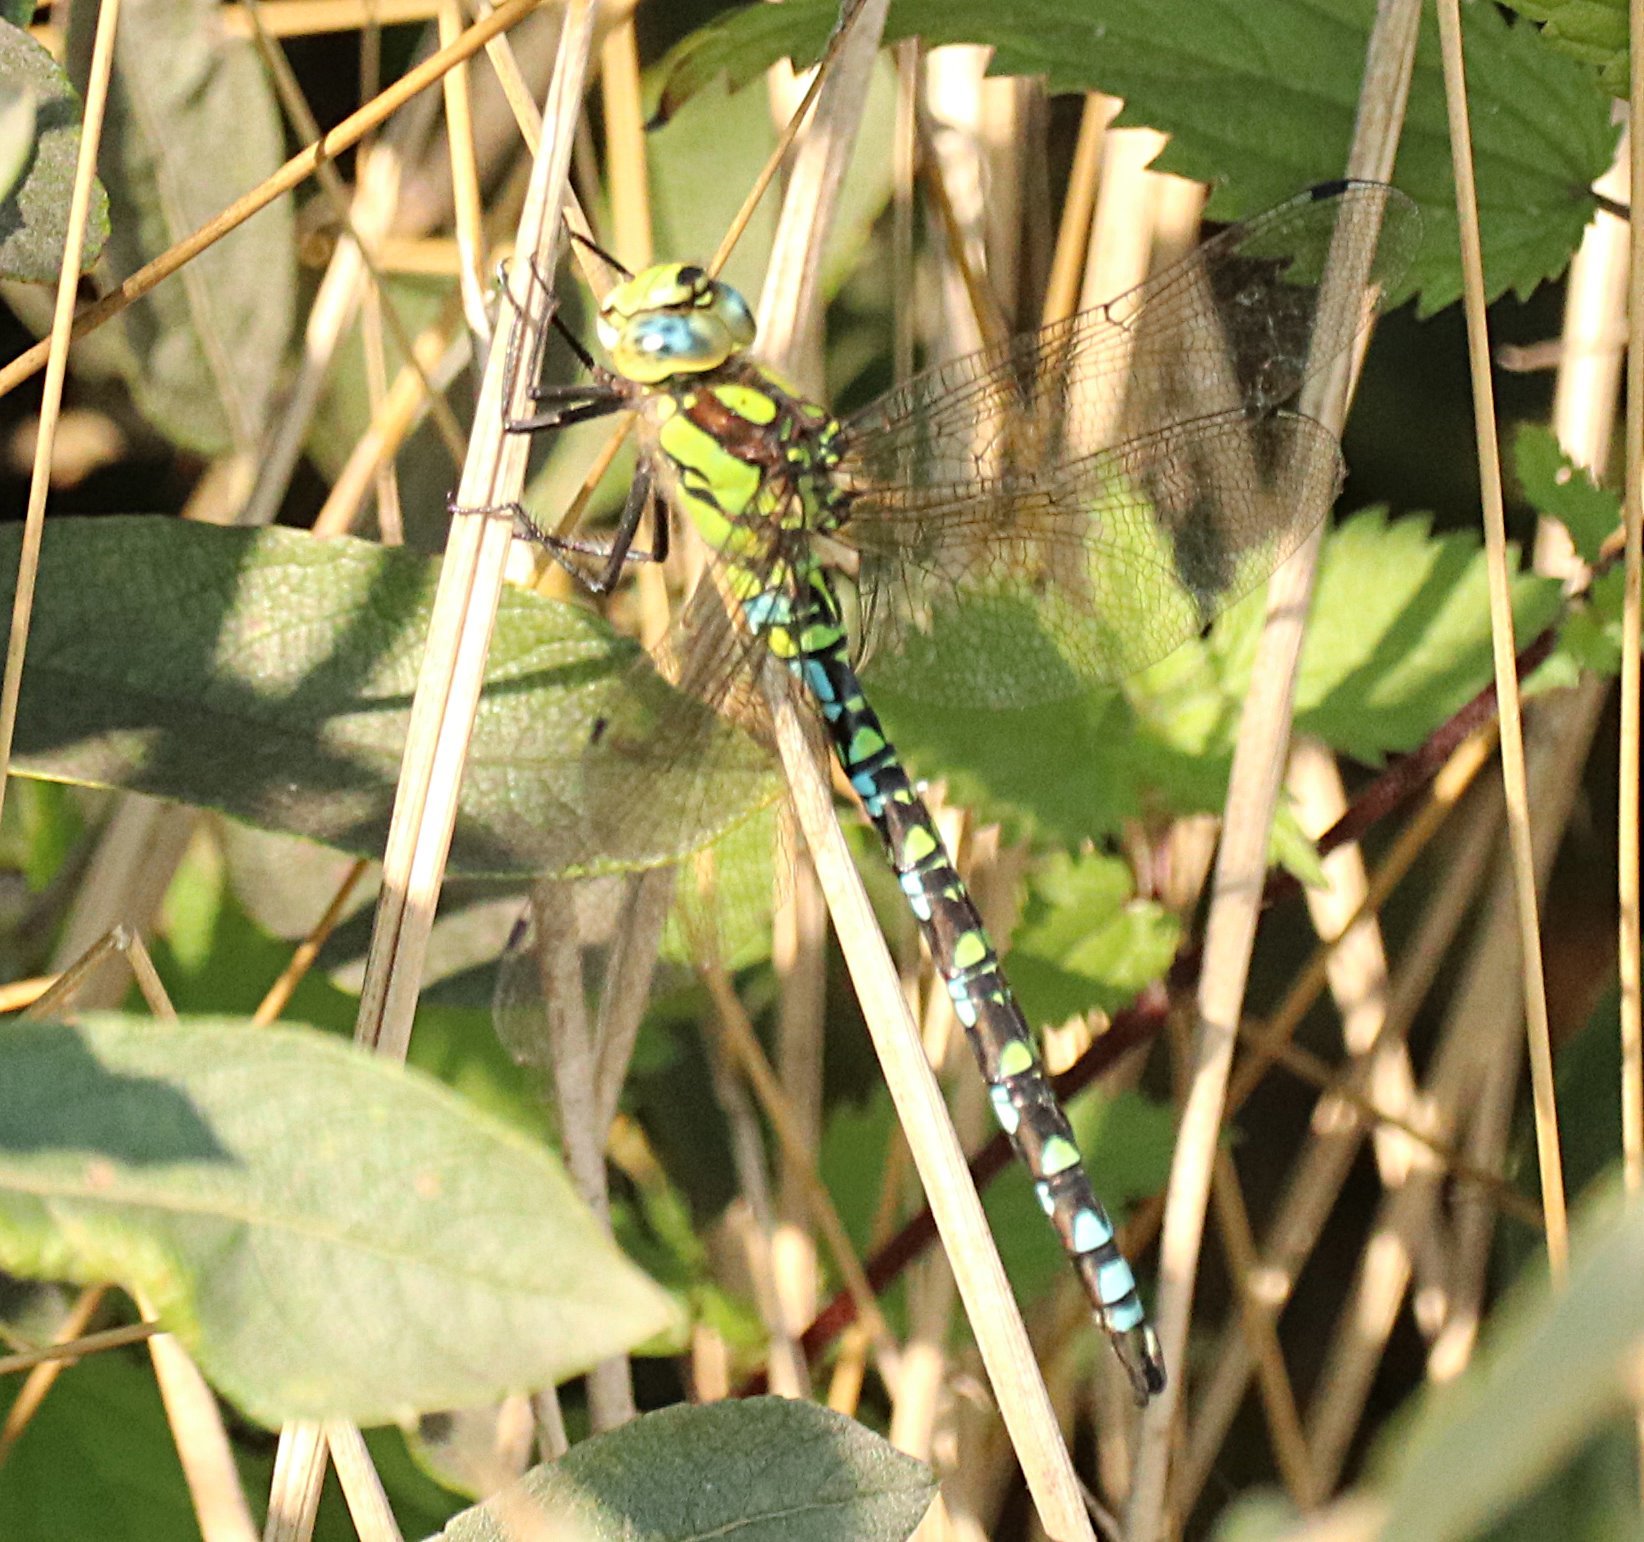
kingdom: Animalia
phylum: Arthropoda
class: Insecta
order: Odonata
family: Aeshnidae
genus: Aeshna
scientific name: Aeshna cyanea
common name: Southern hawker
